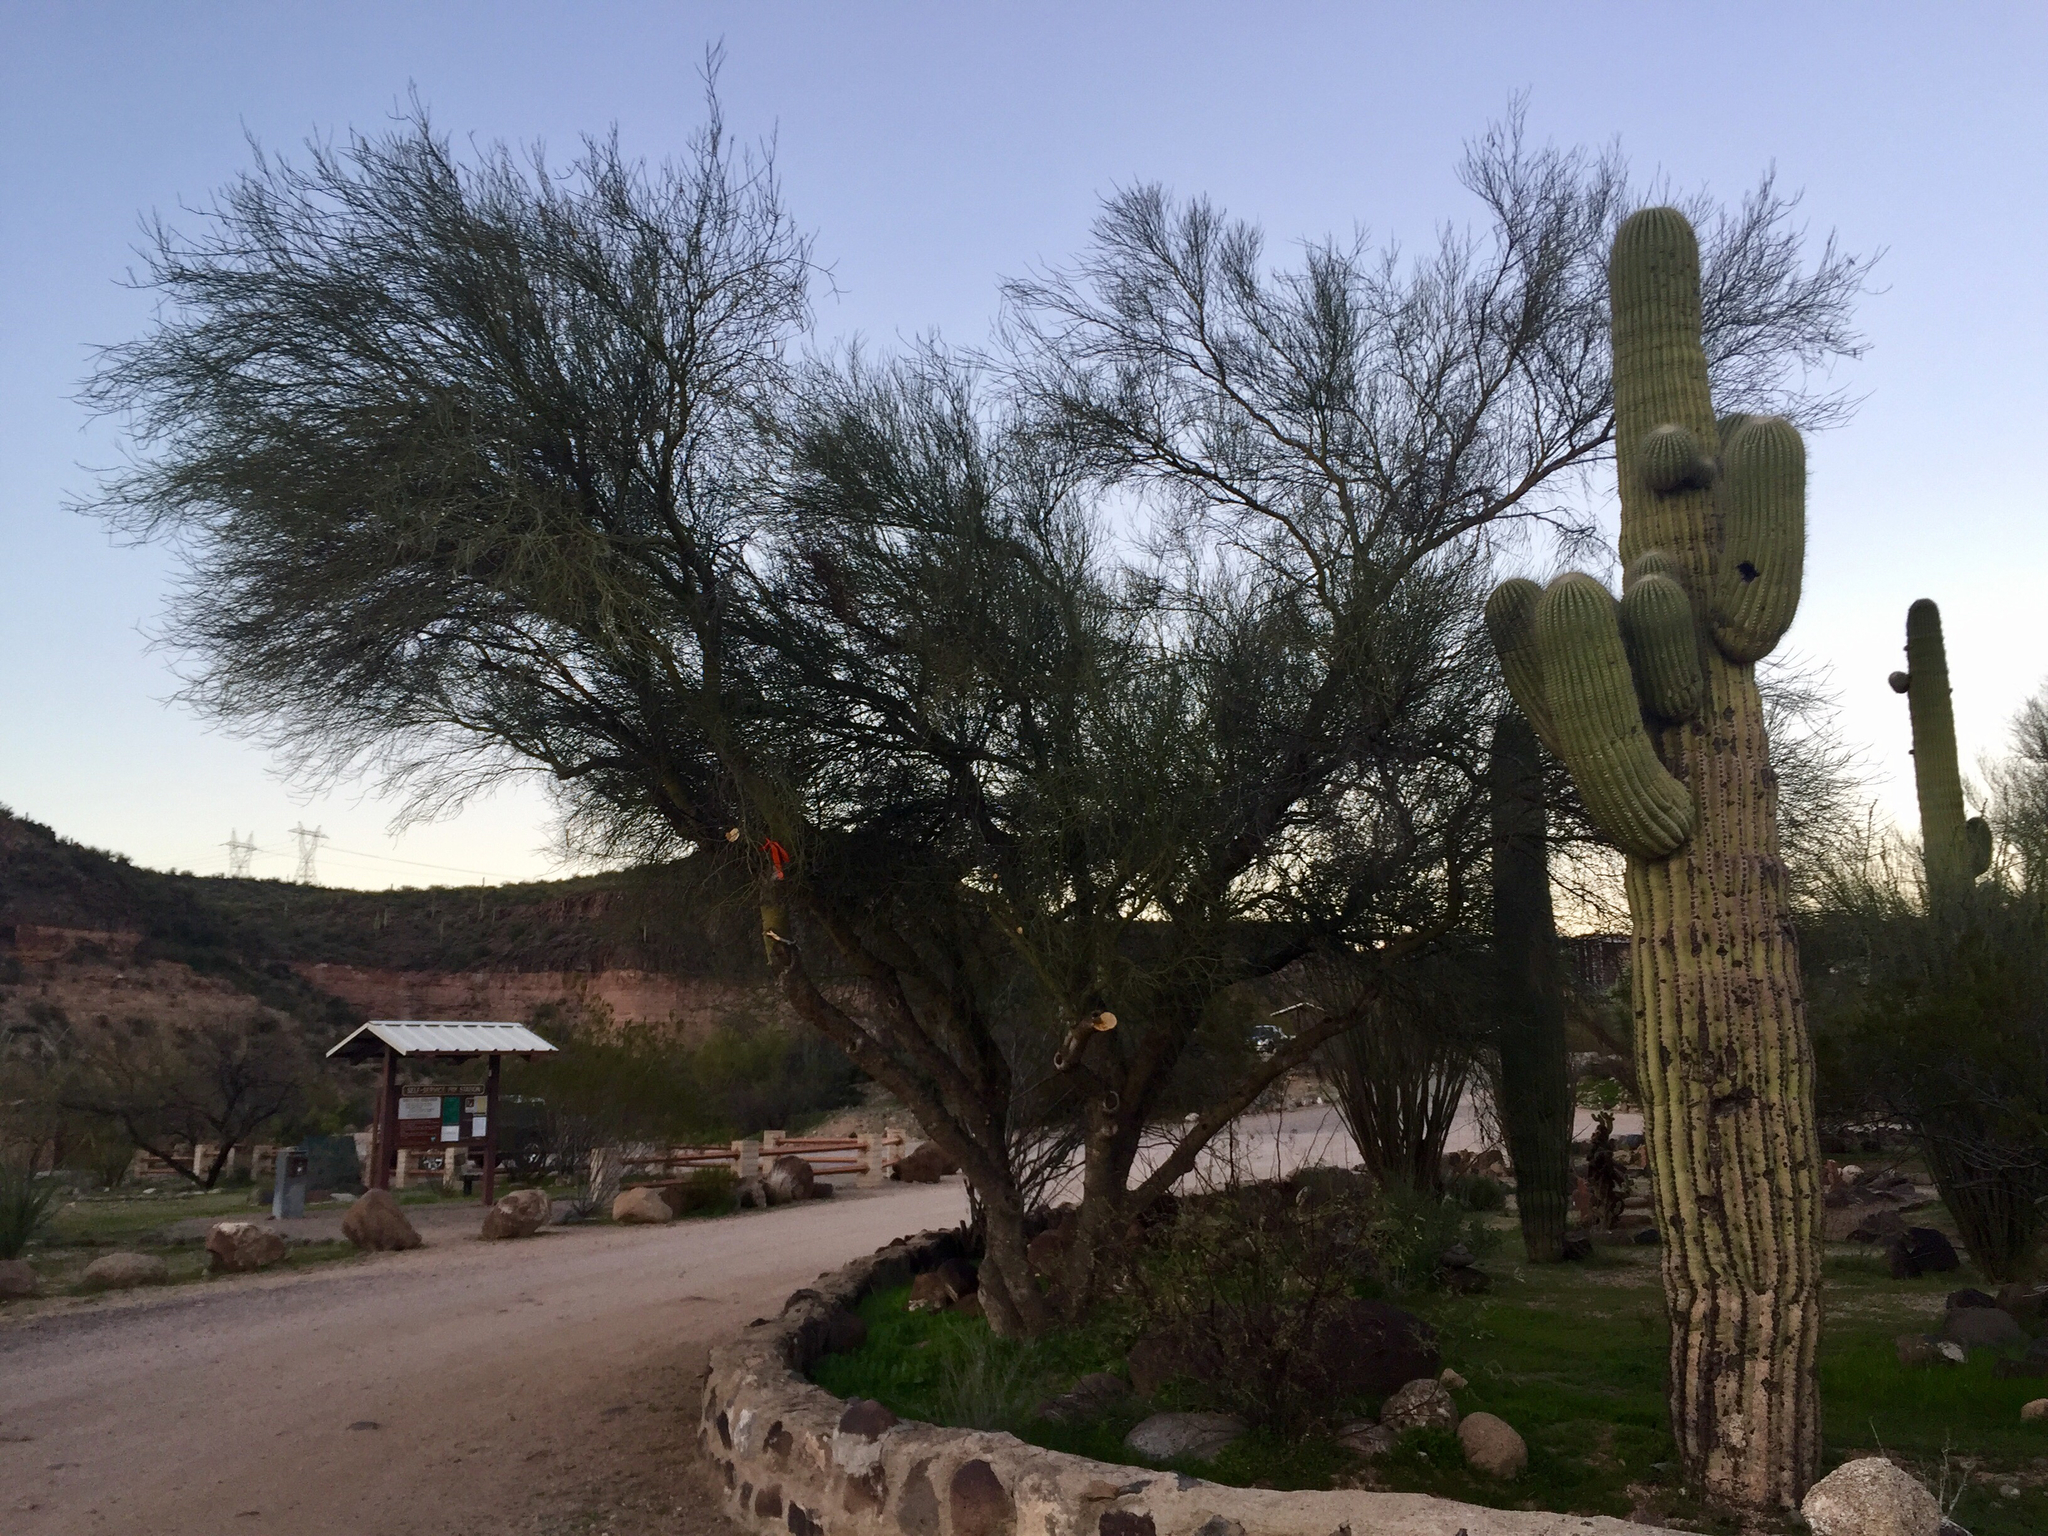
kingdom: Plantae
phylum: Tracheophyta
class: Magnoliopsida
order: Fabales
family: Fabaceae
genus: Parkinsonia
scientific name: Parkinsonia florida
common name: Blue paloverde
